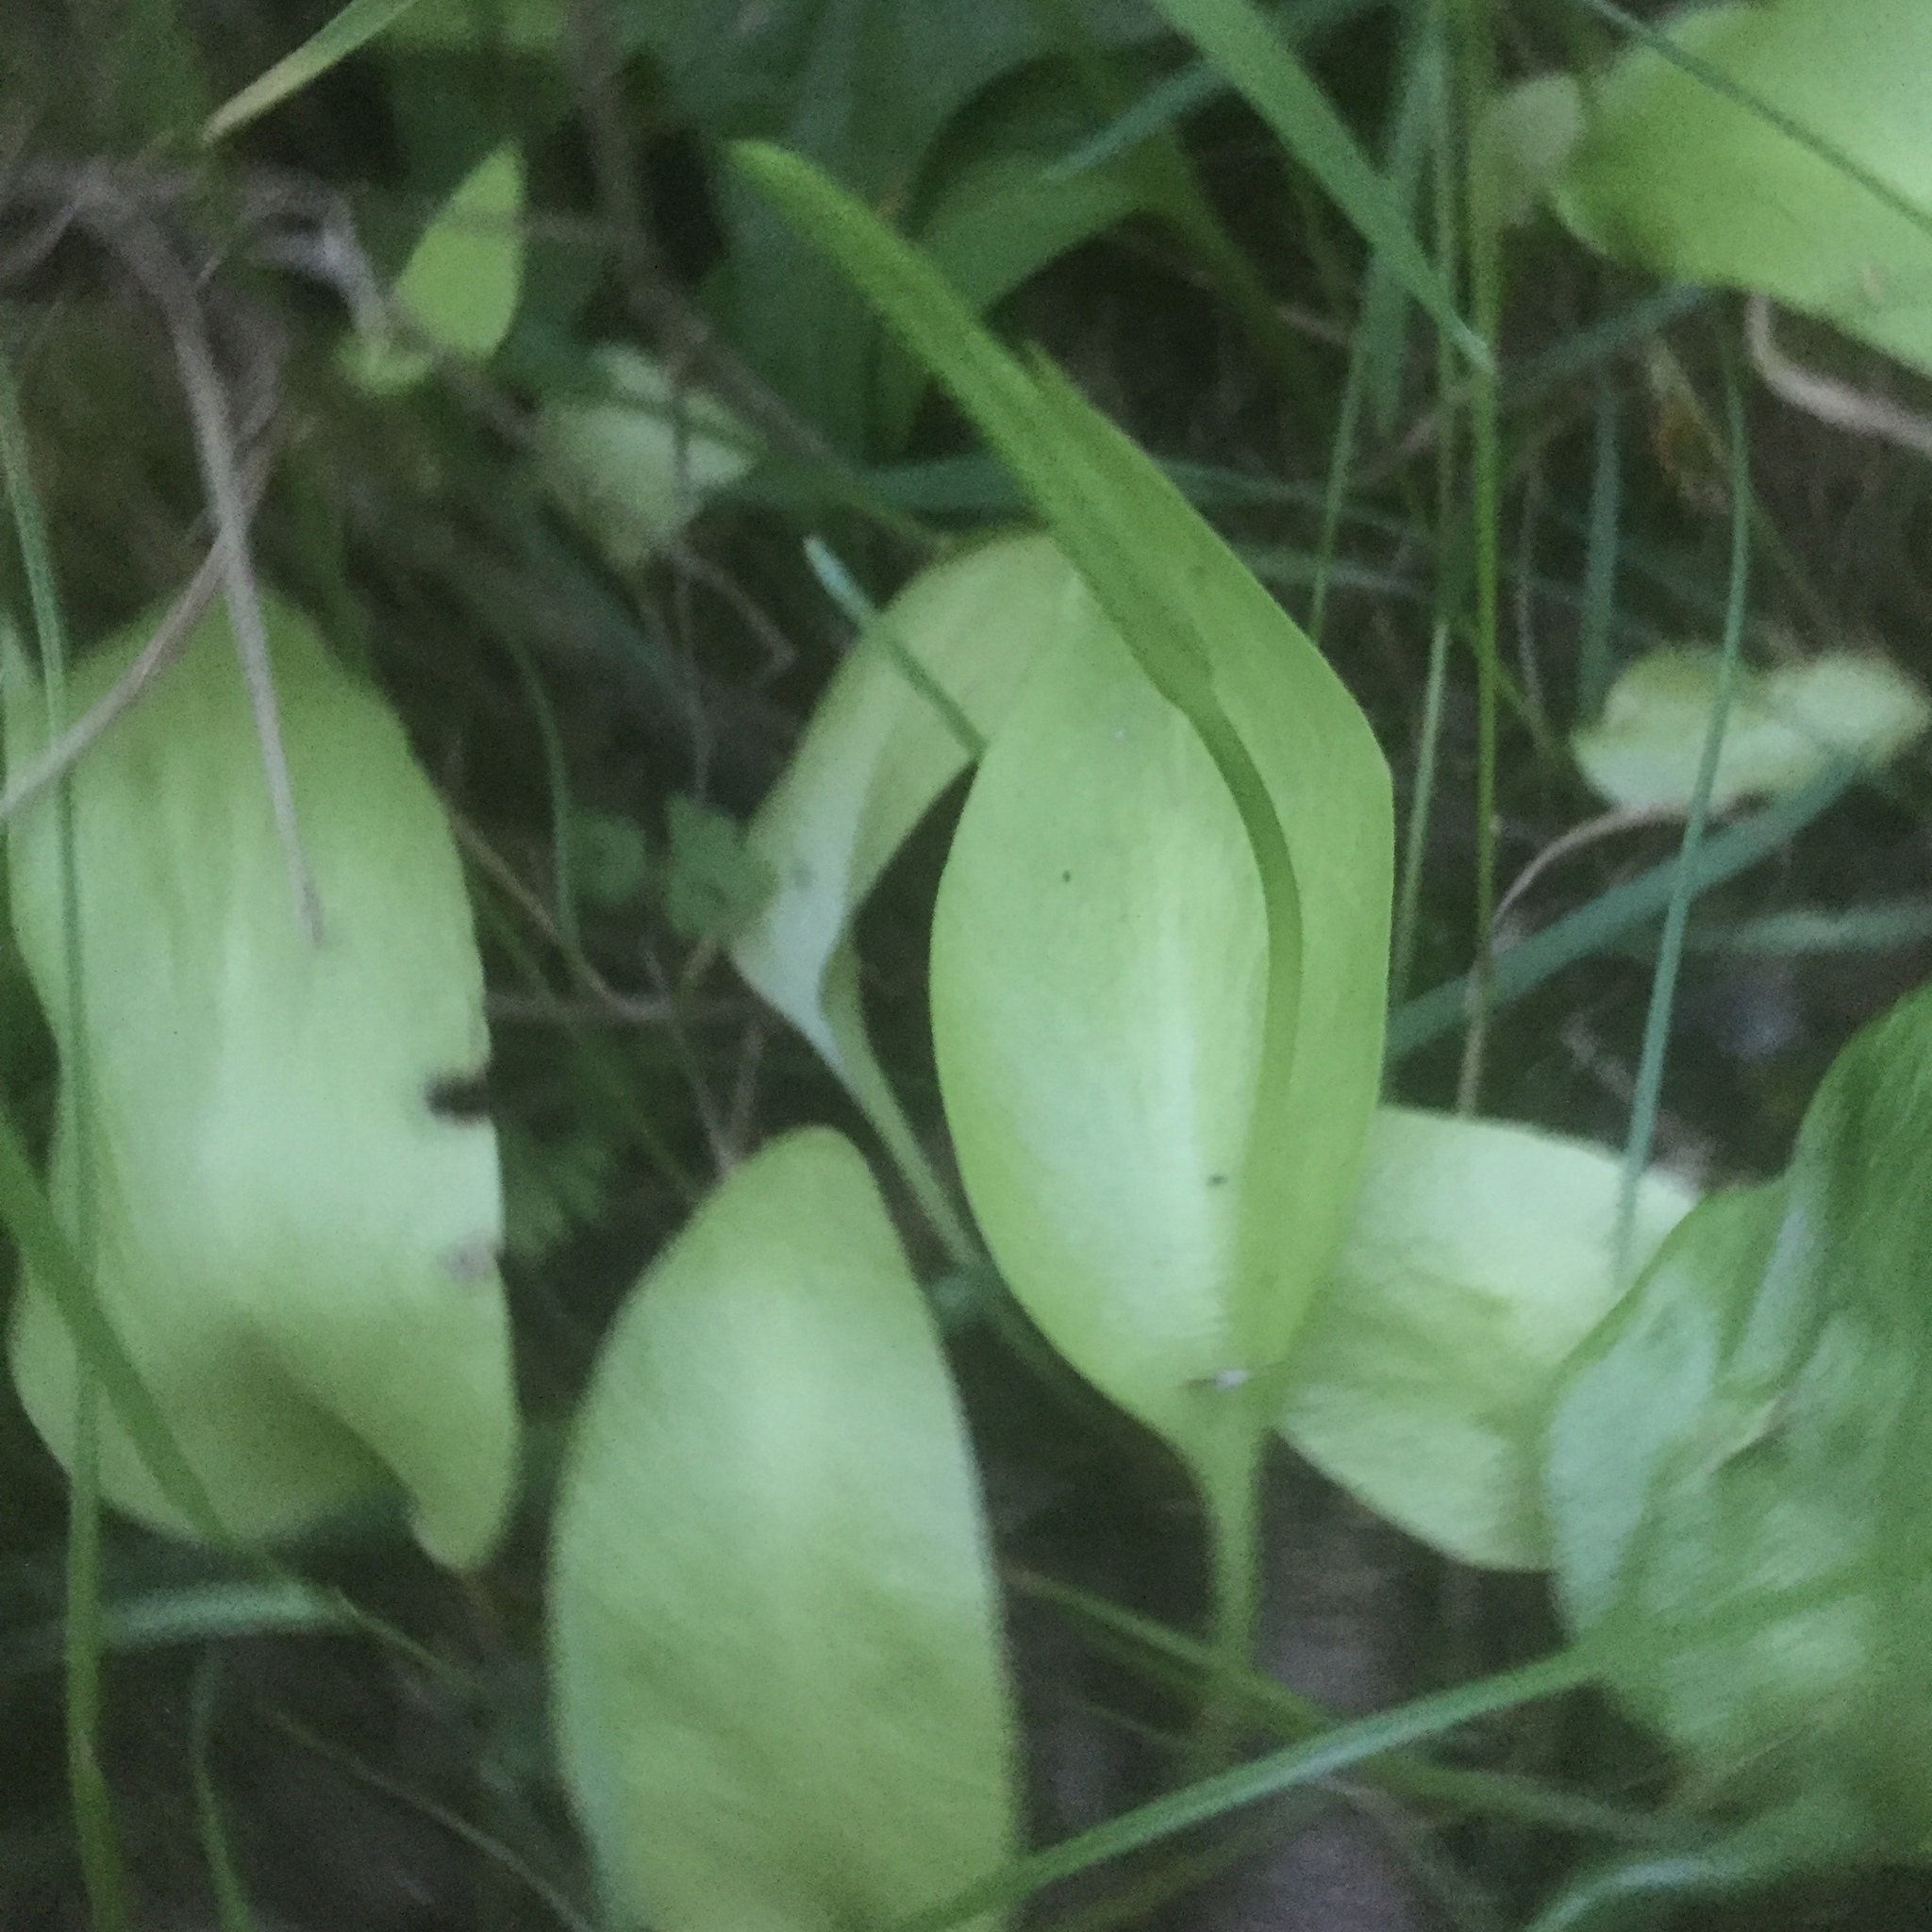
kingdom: Plantae
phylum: Tracheophyta
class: Polypodiopsida
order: Ophioglossales
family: Ophioglossaceae
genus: Ophioglossum
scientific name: Ophioglossum vulgatum
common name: Adder's-tongue
